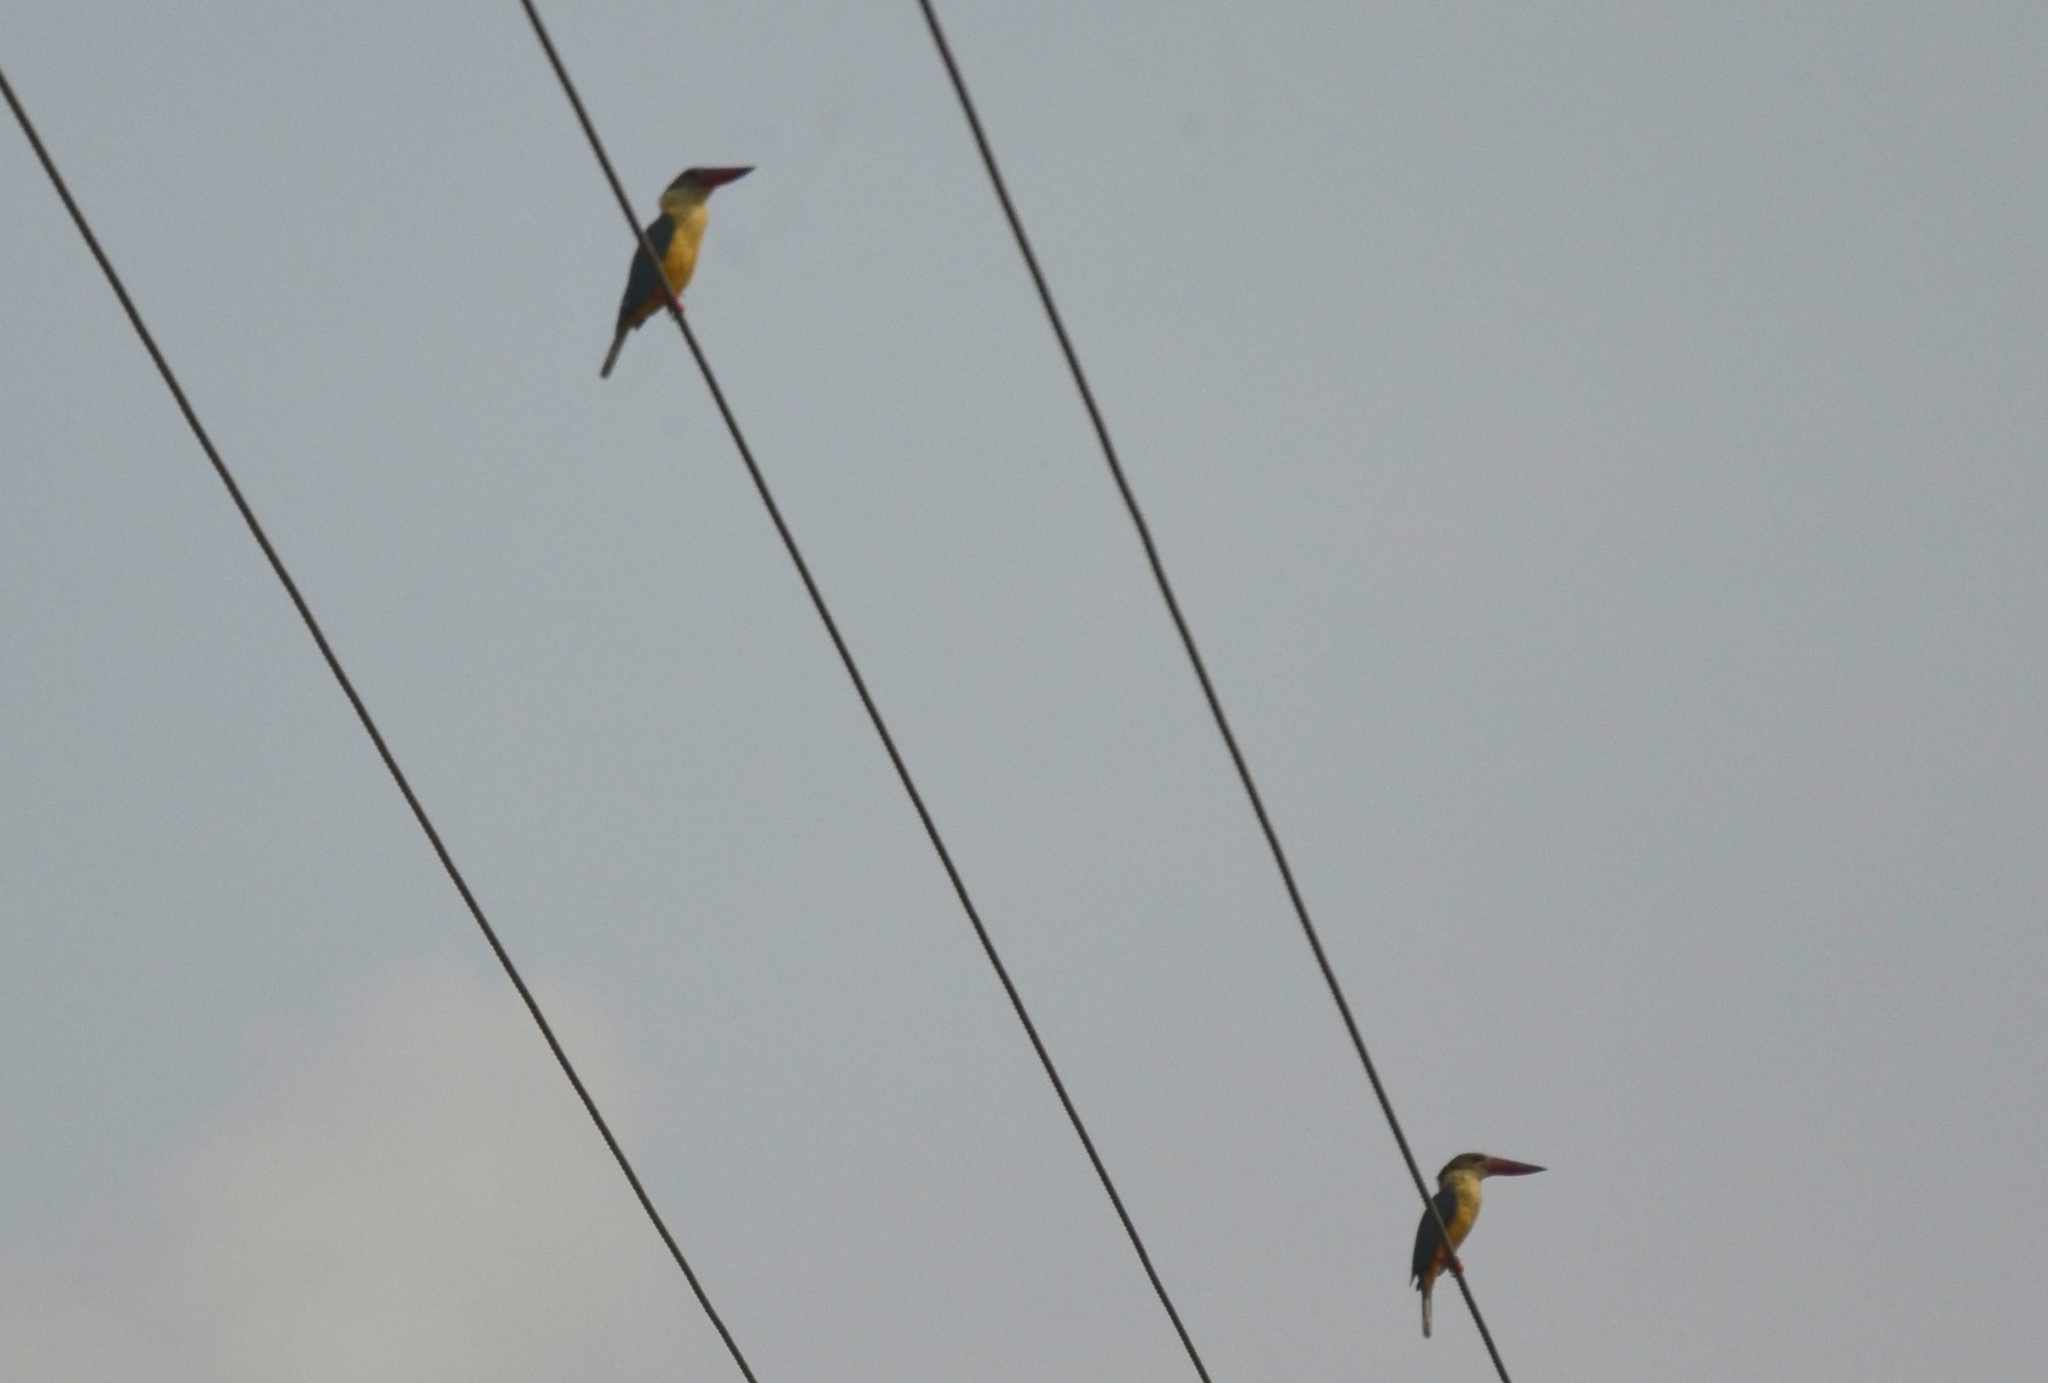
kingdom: Animalia
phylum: Chordata
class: Aves
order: Coraciiformes
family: Alcedinidae
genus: Pelargopsis
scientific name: Pelargopsis capensis
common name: Stork-billed kingfisher
